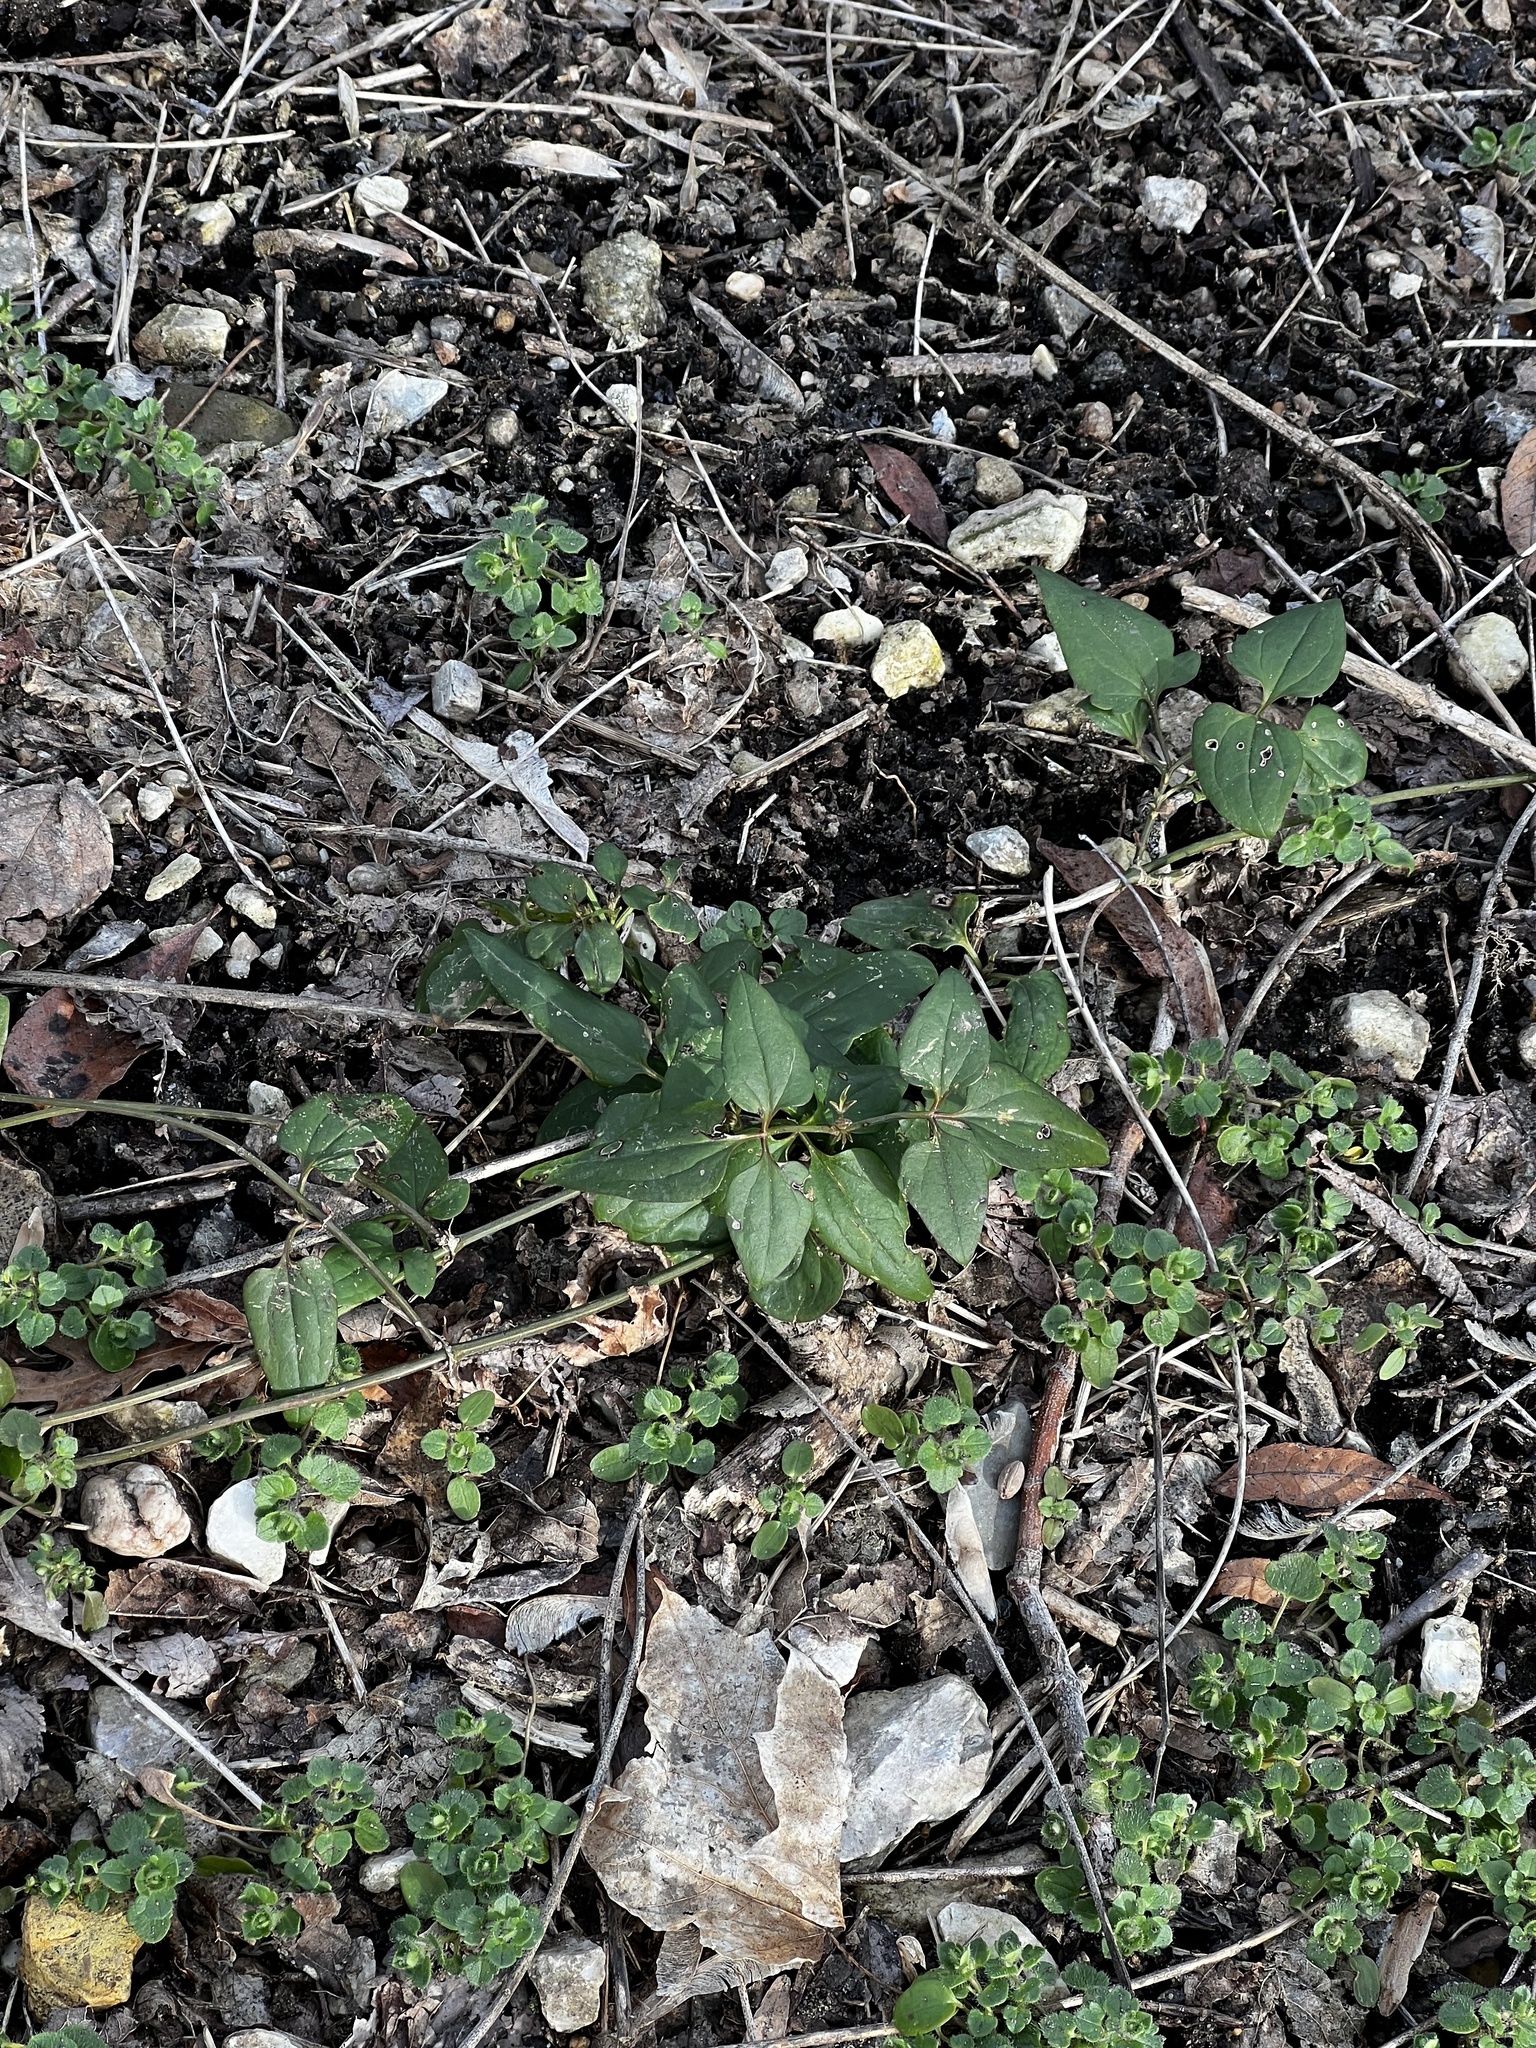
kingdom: Plantae
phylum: Tracheophyta
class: Magnoliopsida
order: Ranunculales
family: Ranunculaceae
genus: Clematis
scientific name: Clematis terniflora
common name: Sweet autumn clematis
